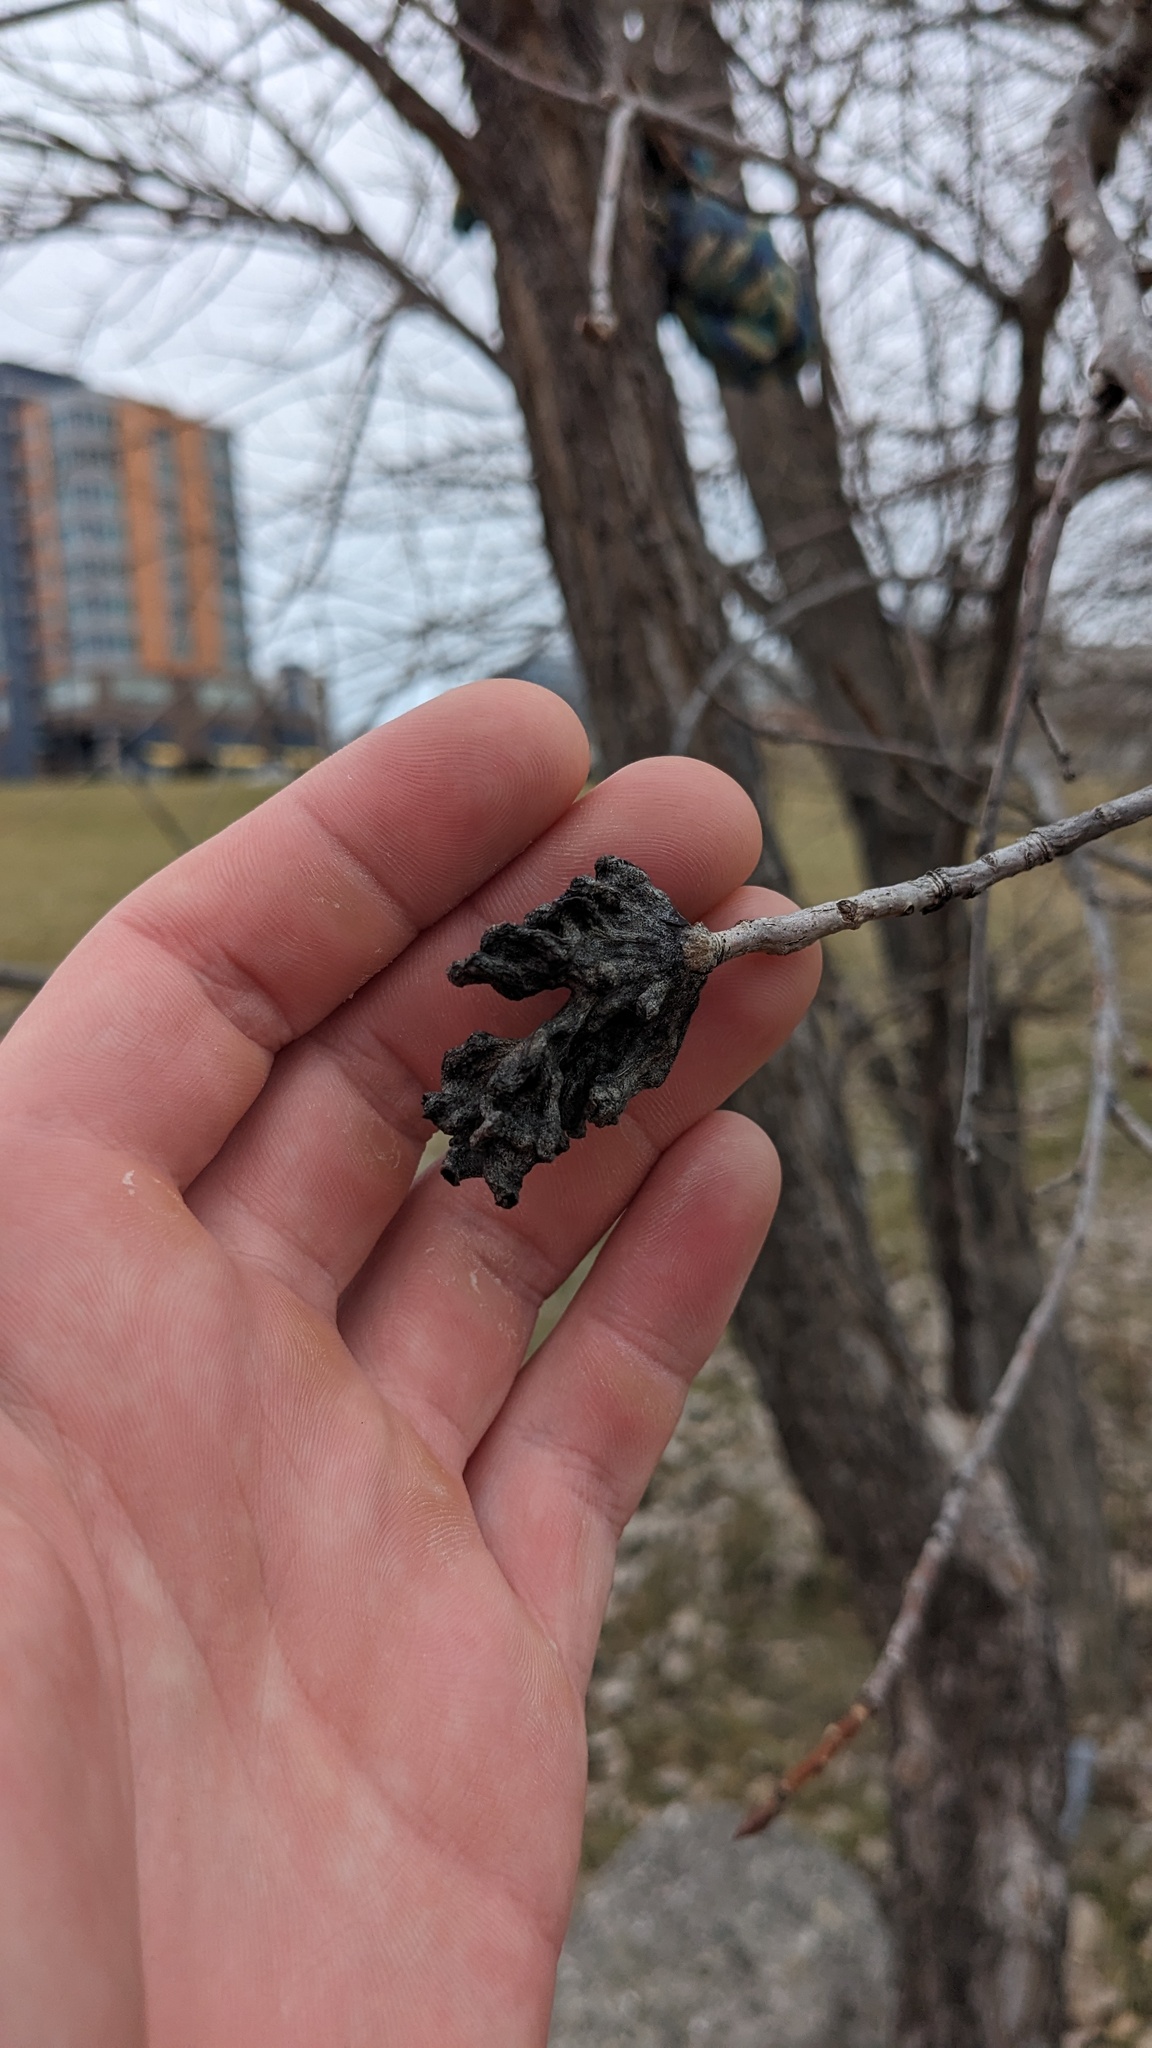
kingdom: Animalia
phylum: Arthropoda
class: Insecta
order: Hemiptera
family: Aphididae
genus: Mordwilkoja
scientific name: Mordwilkoja vagabunda
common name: Poplar vagabond aphid
